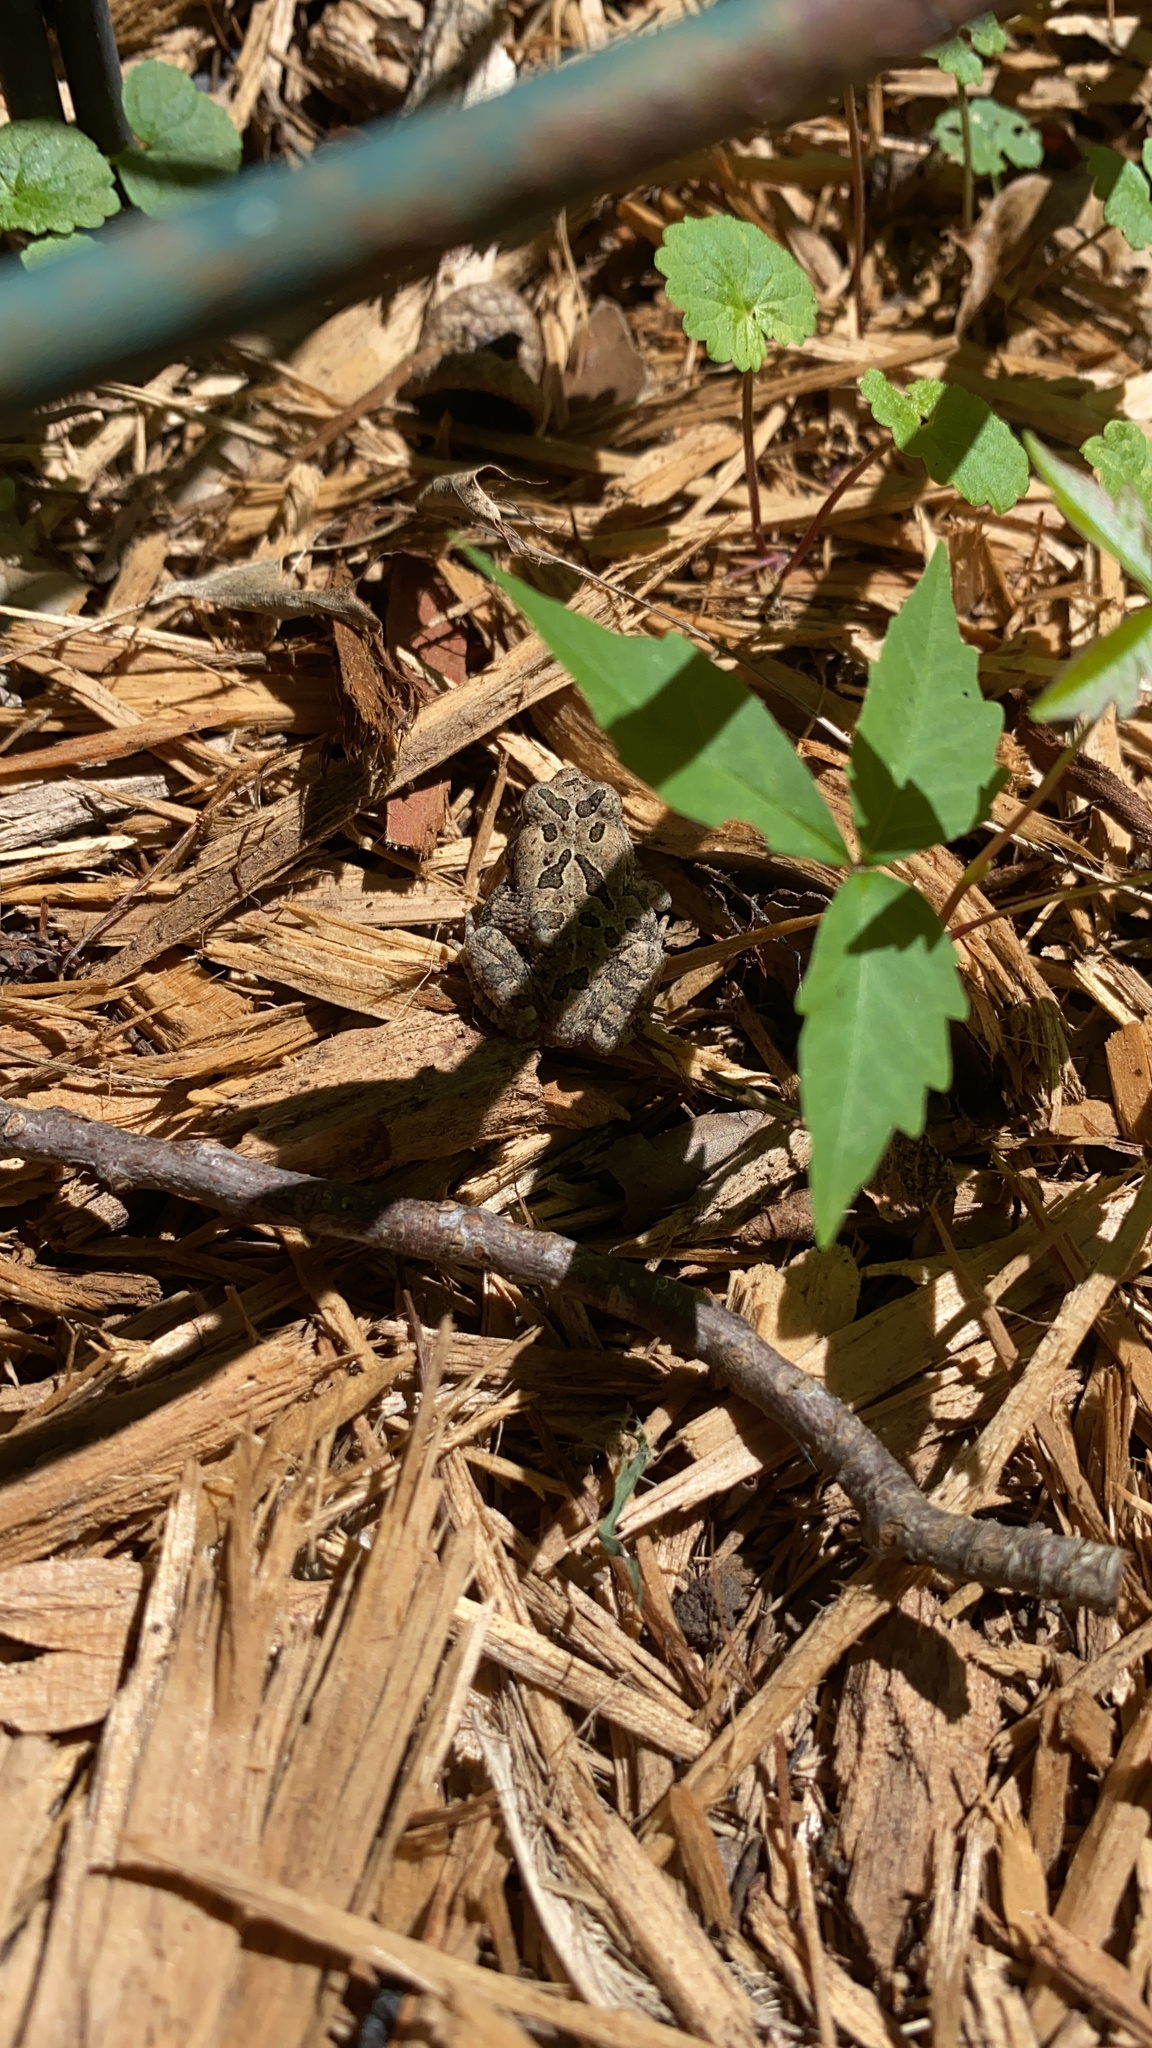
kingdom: Animalia
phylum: Chordata
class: Amphibia
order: Anura
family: Bufonidae
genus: Anaxyrus
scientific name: Anaxyrus fowleri
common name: Fowler's toad
